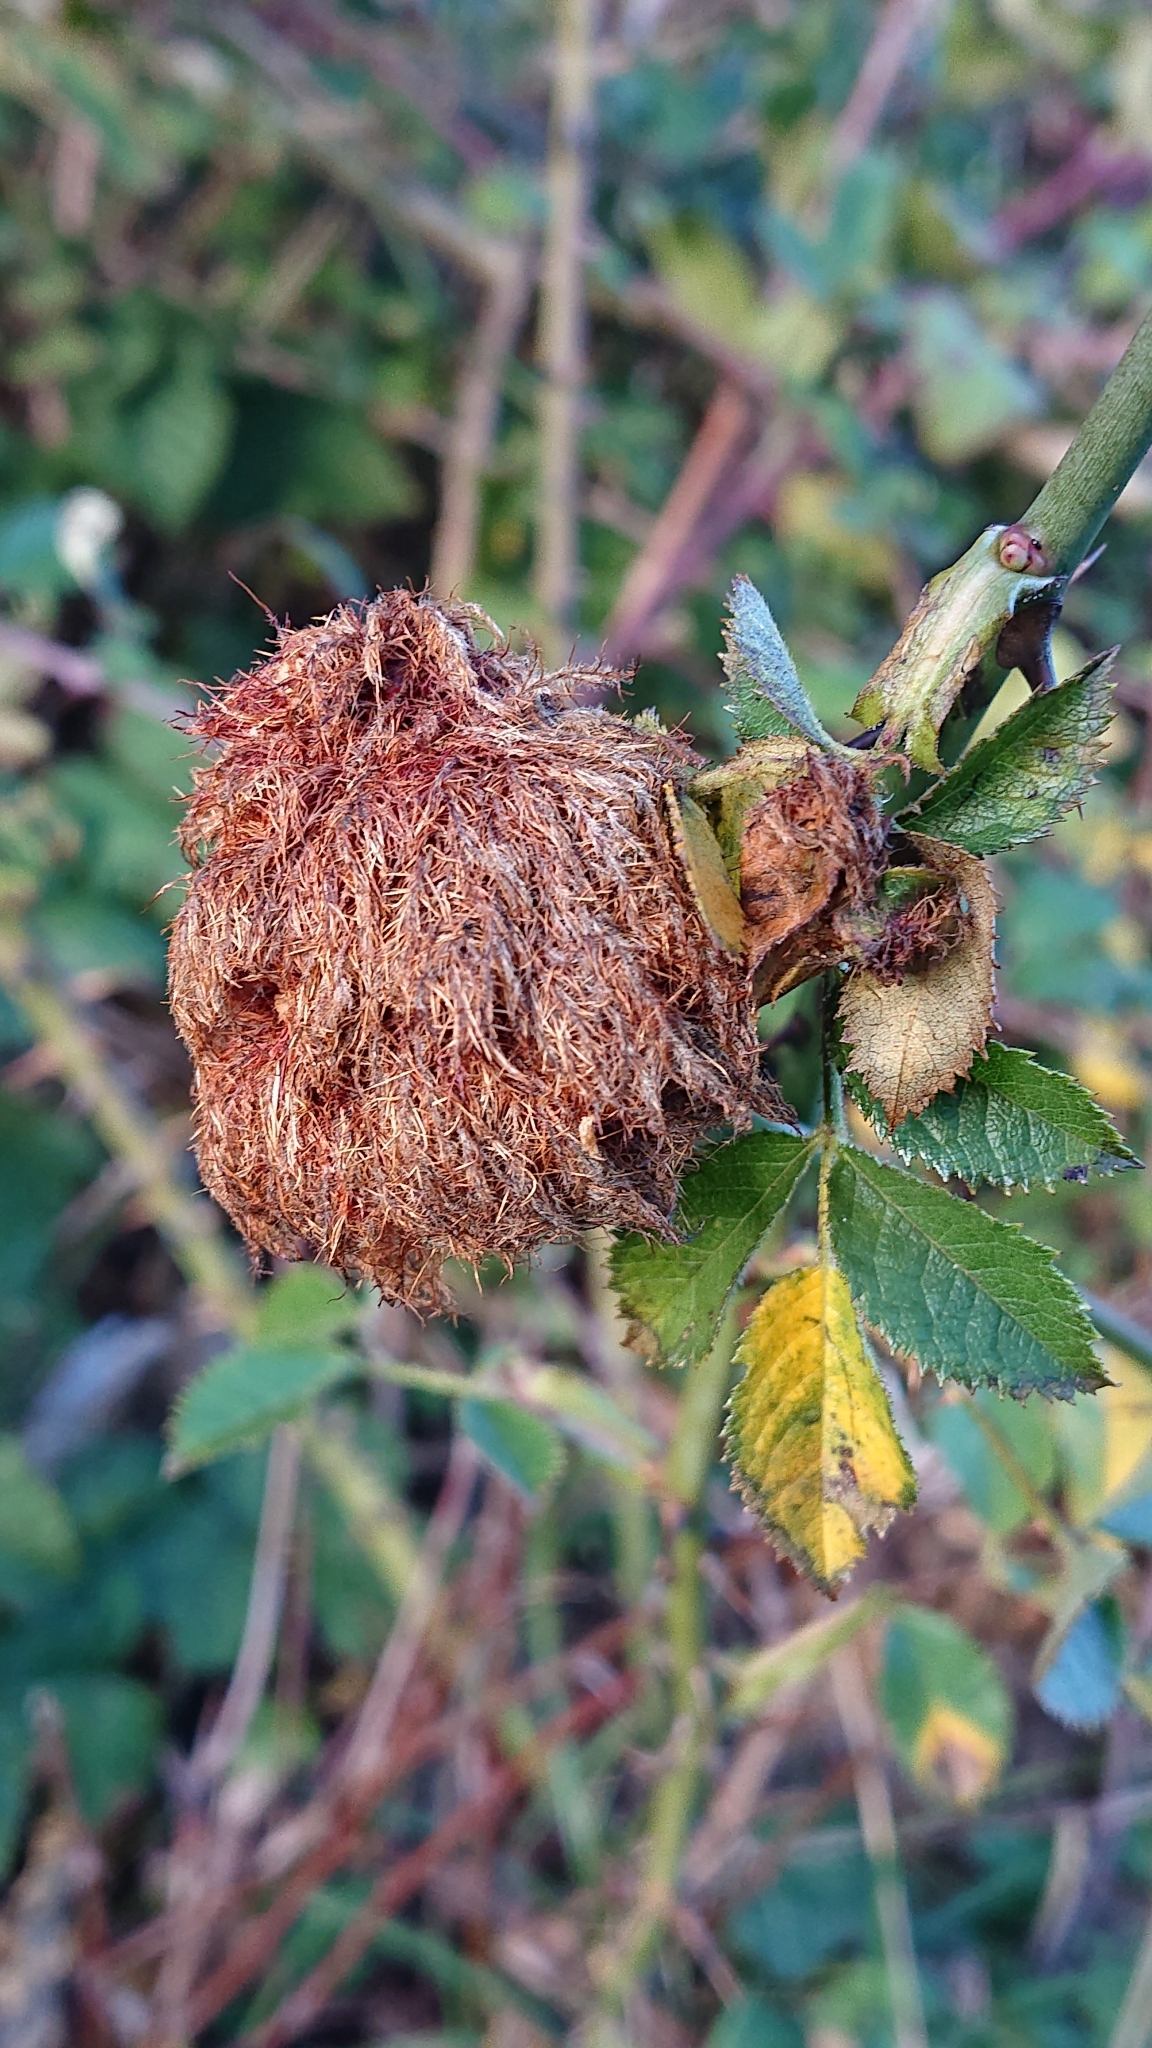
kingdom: Animalia
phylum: Arthropoda
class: Insecta
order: Hymenoptera
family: Cynipidae
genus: Diplolepis
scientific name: Diplolepis rosae
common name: Bedeguar gall
